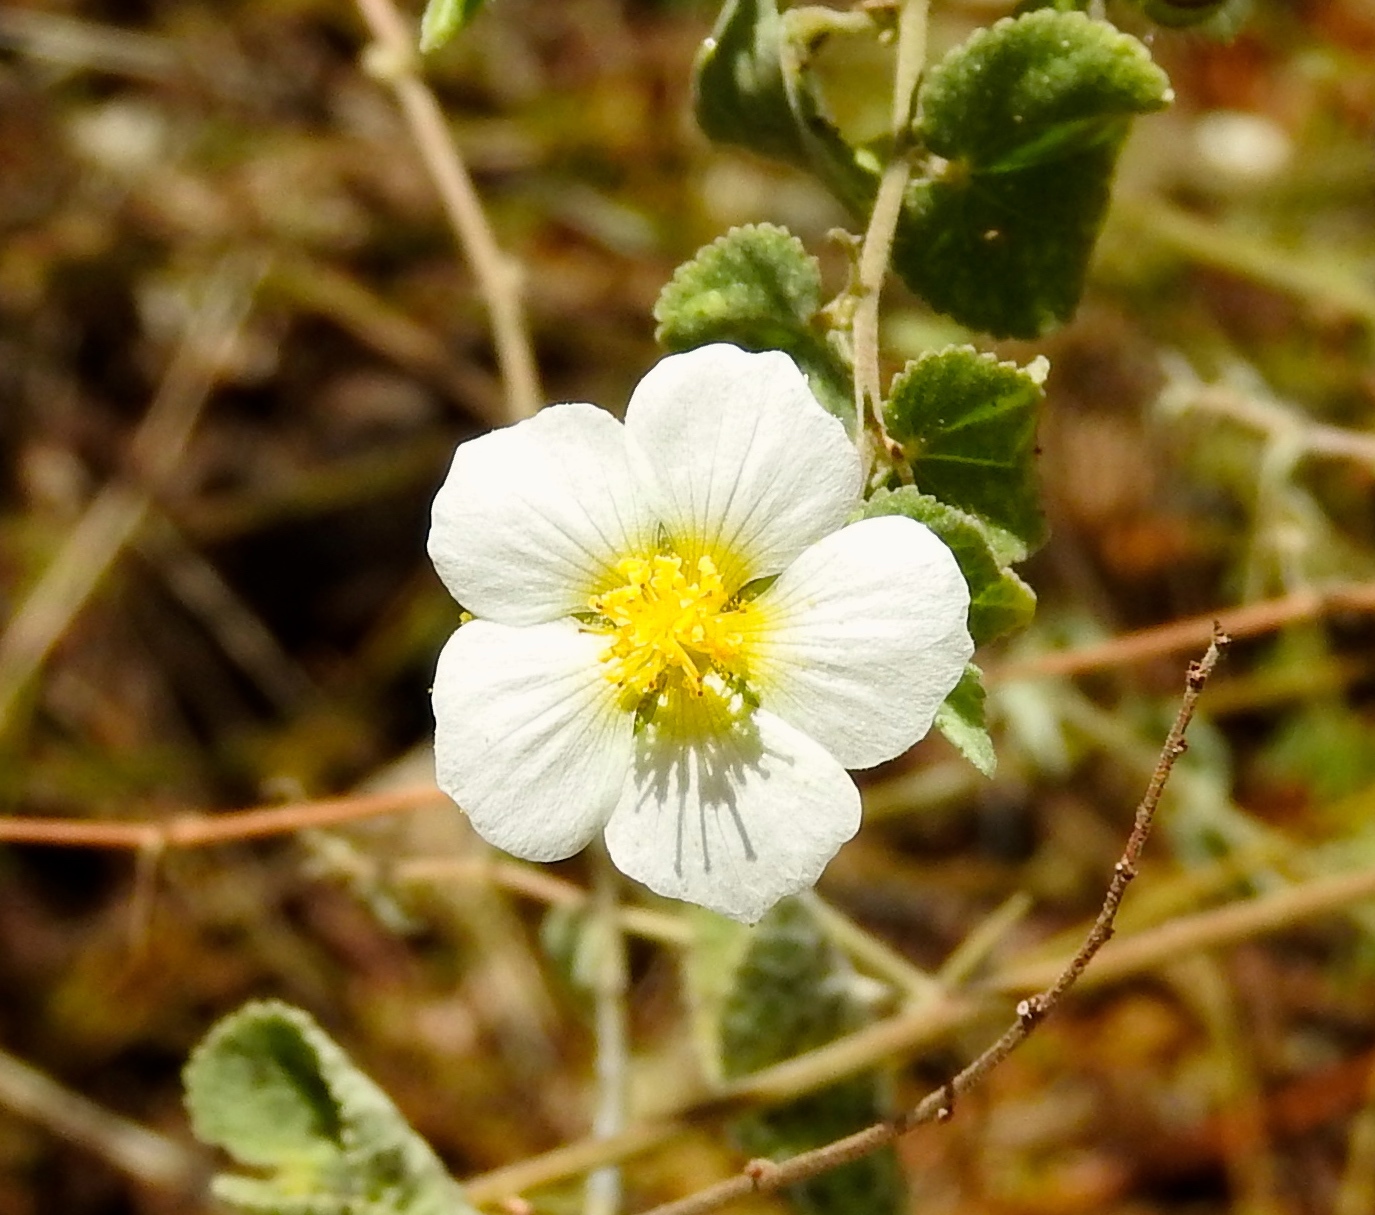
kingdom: Plantae
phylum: Tracheophyta
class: Magnoliopsida
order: Malvales
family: Malvaceae
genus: Herissantia
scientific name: Herissantia crispa
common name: Bladdermallow
